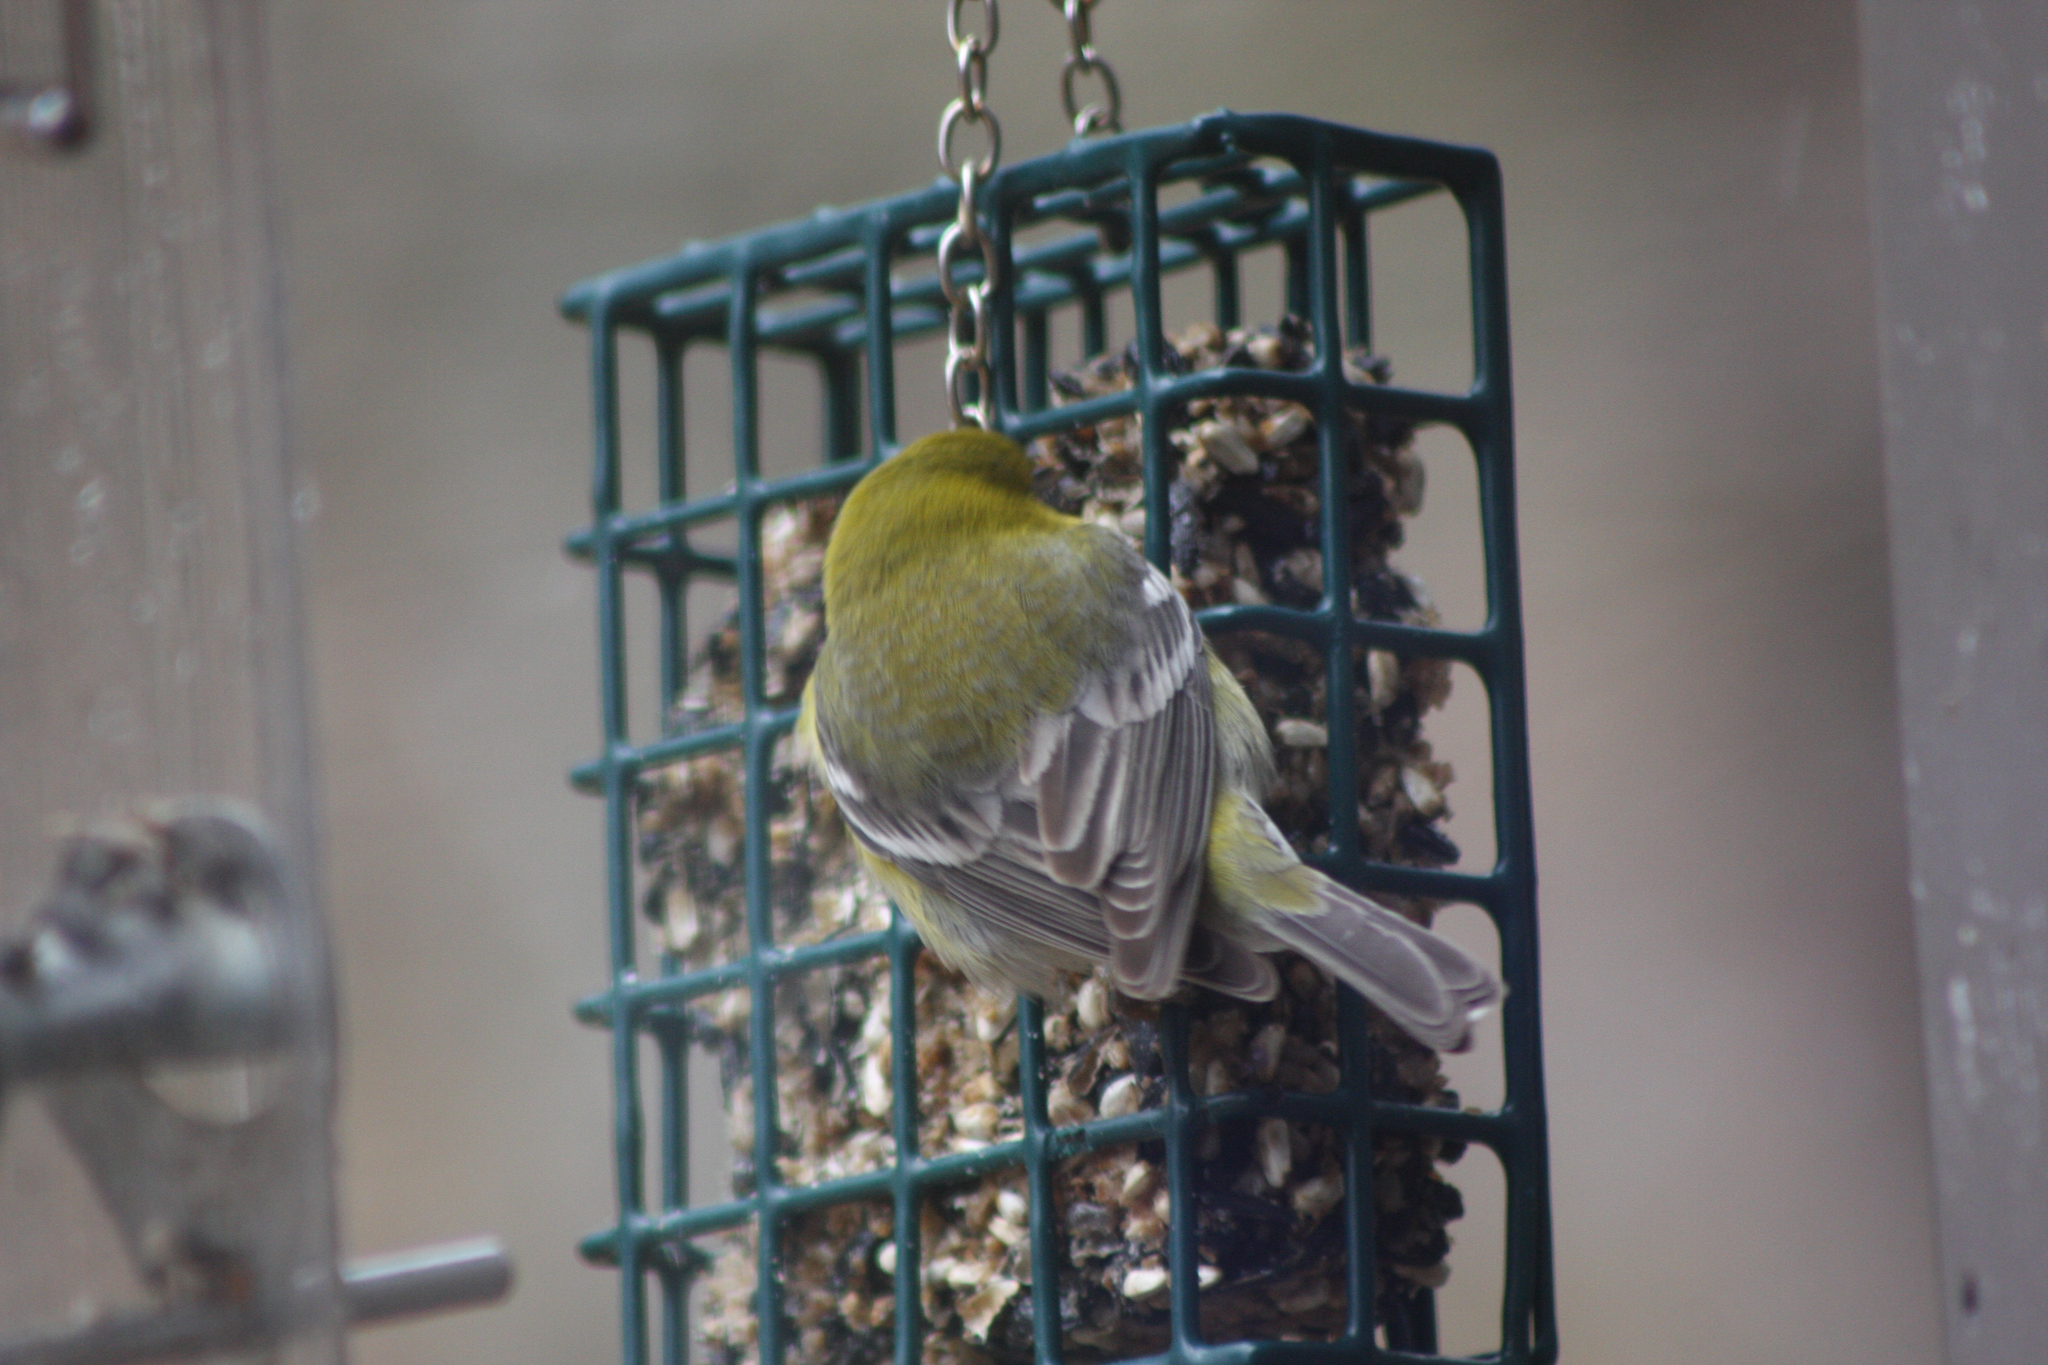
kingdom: Animalia
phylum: Chordata
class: Aves
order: Passeriformes
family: Parulidae
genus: Setophaga
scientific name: Setophaga pinus
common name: Pine warbler
